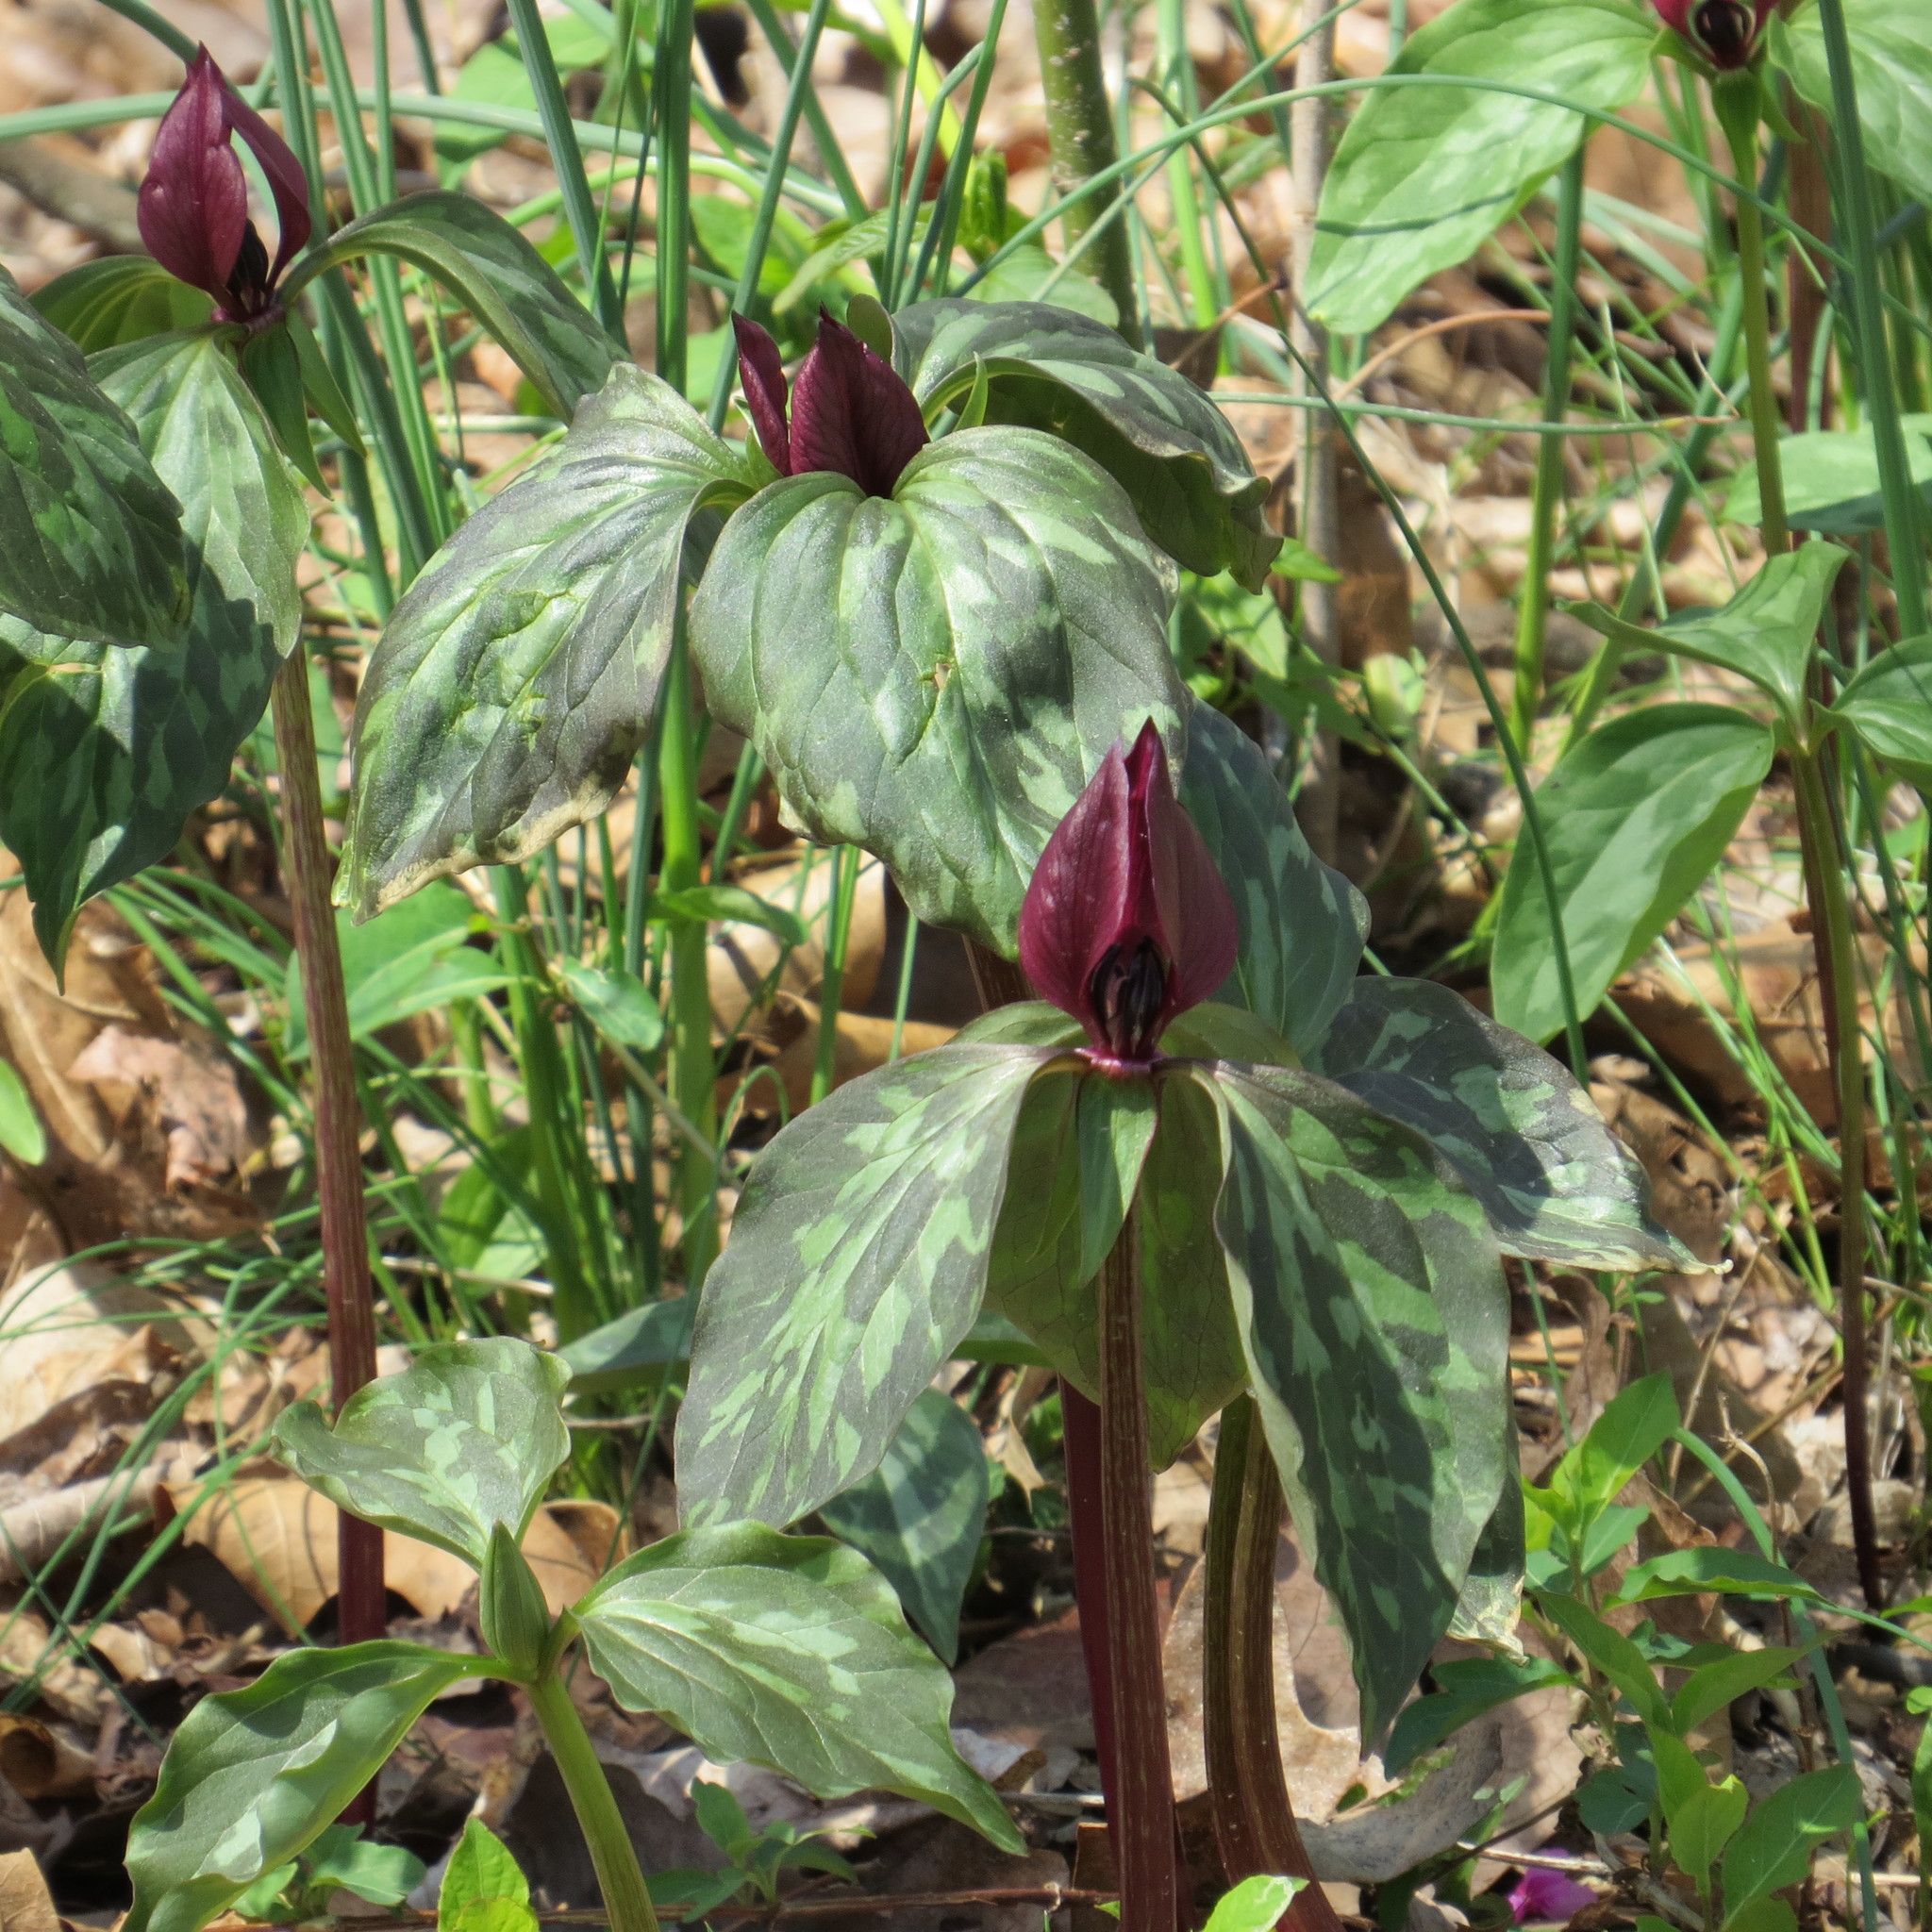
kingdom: Plantae
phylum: Tracheophyta
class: Liliopsida
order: Liliales
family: Melanthiaceae
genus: Trillium
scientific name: Trillium recurvatum
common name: Bloody butcher
